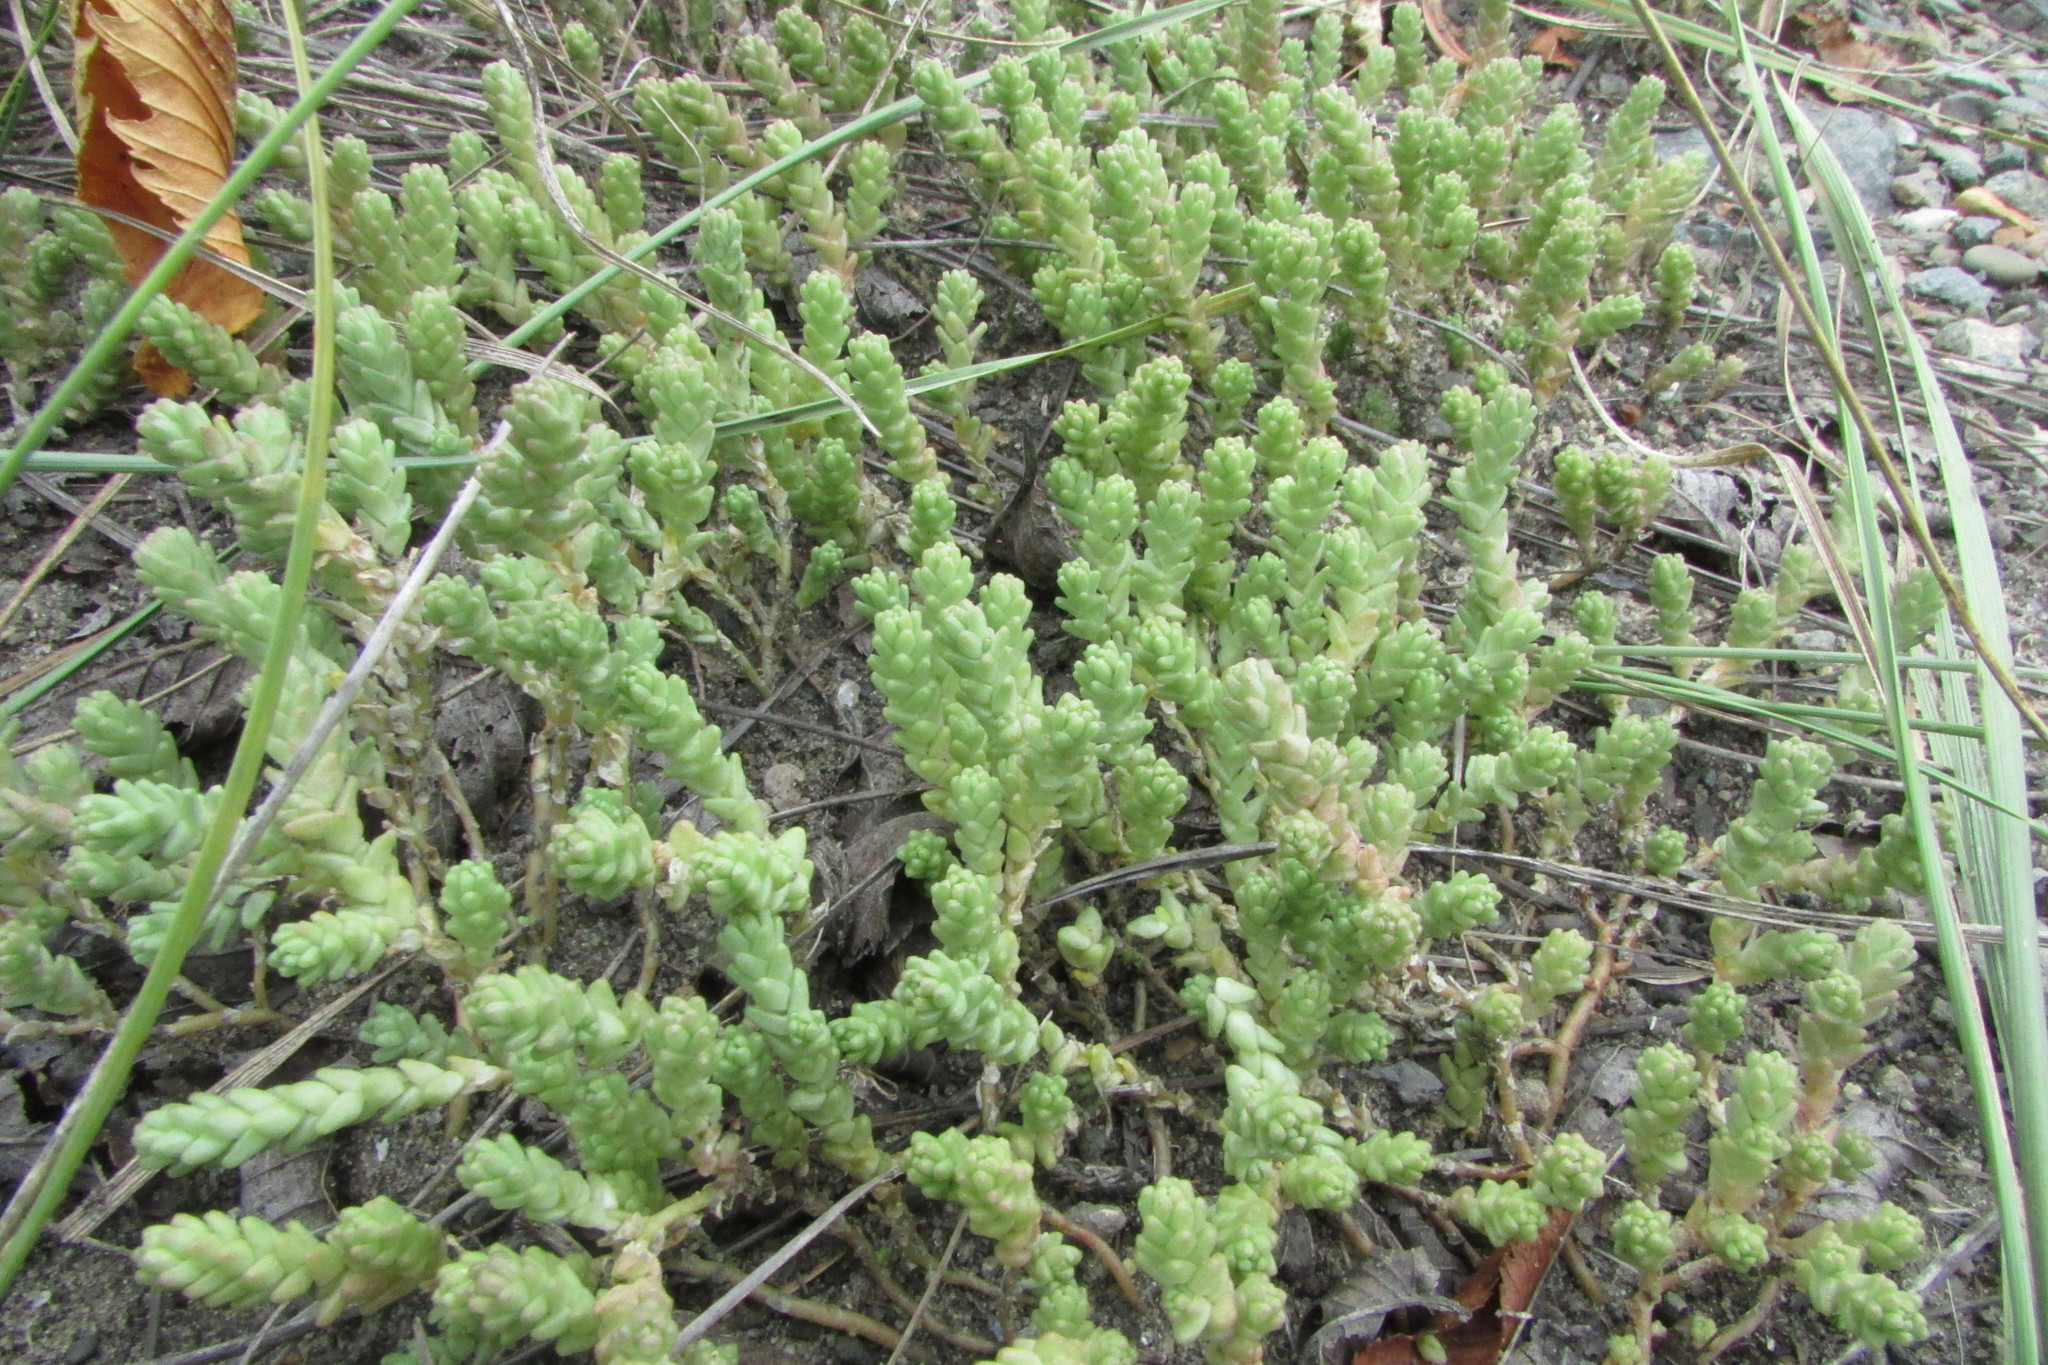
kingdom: Plantae
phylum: Tracheophyta
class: Magnoliopsida
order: Saxifragales
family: Crassulaceae
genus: Sedum
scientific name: Sedum acre
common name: Biting stonecrop
